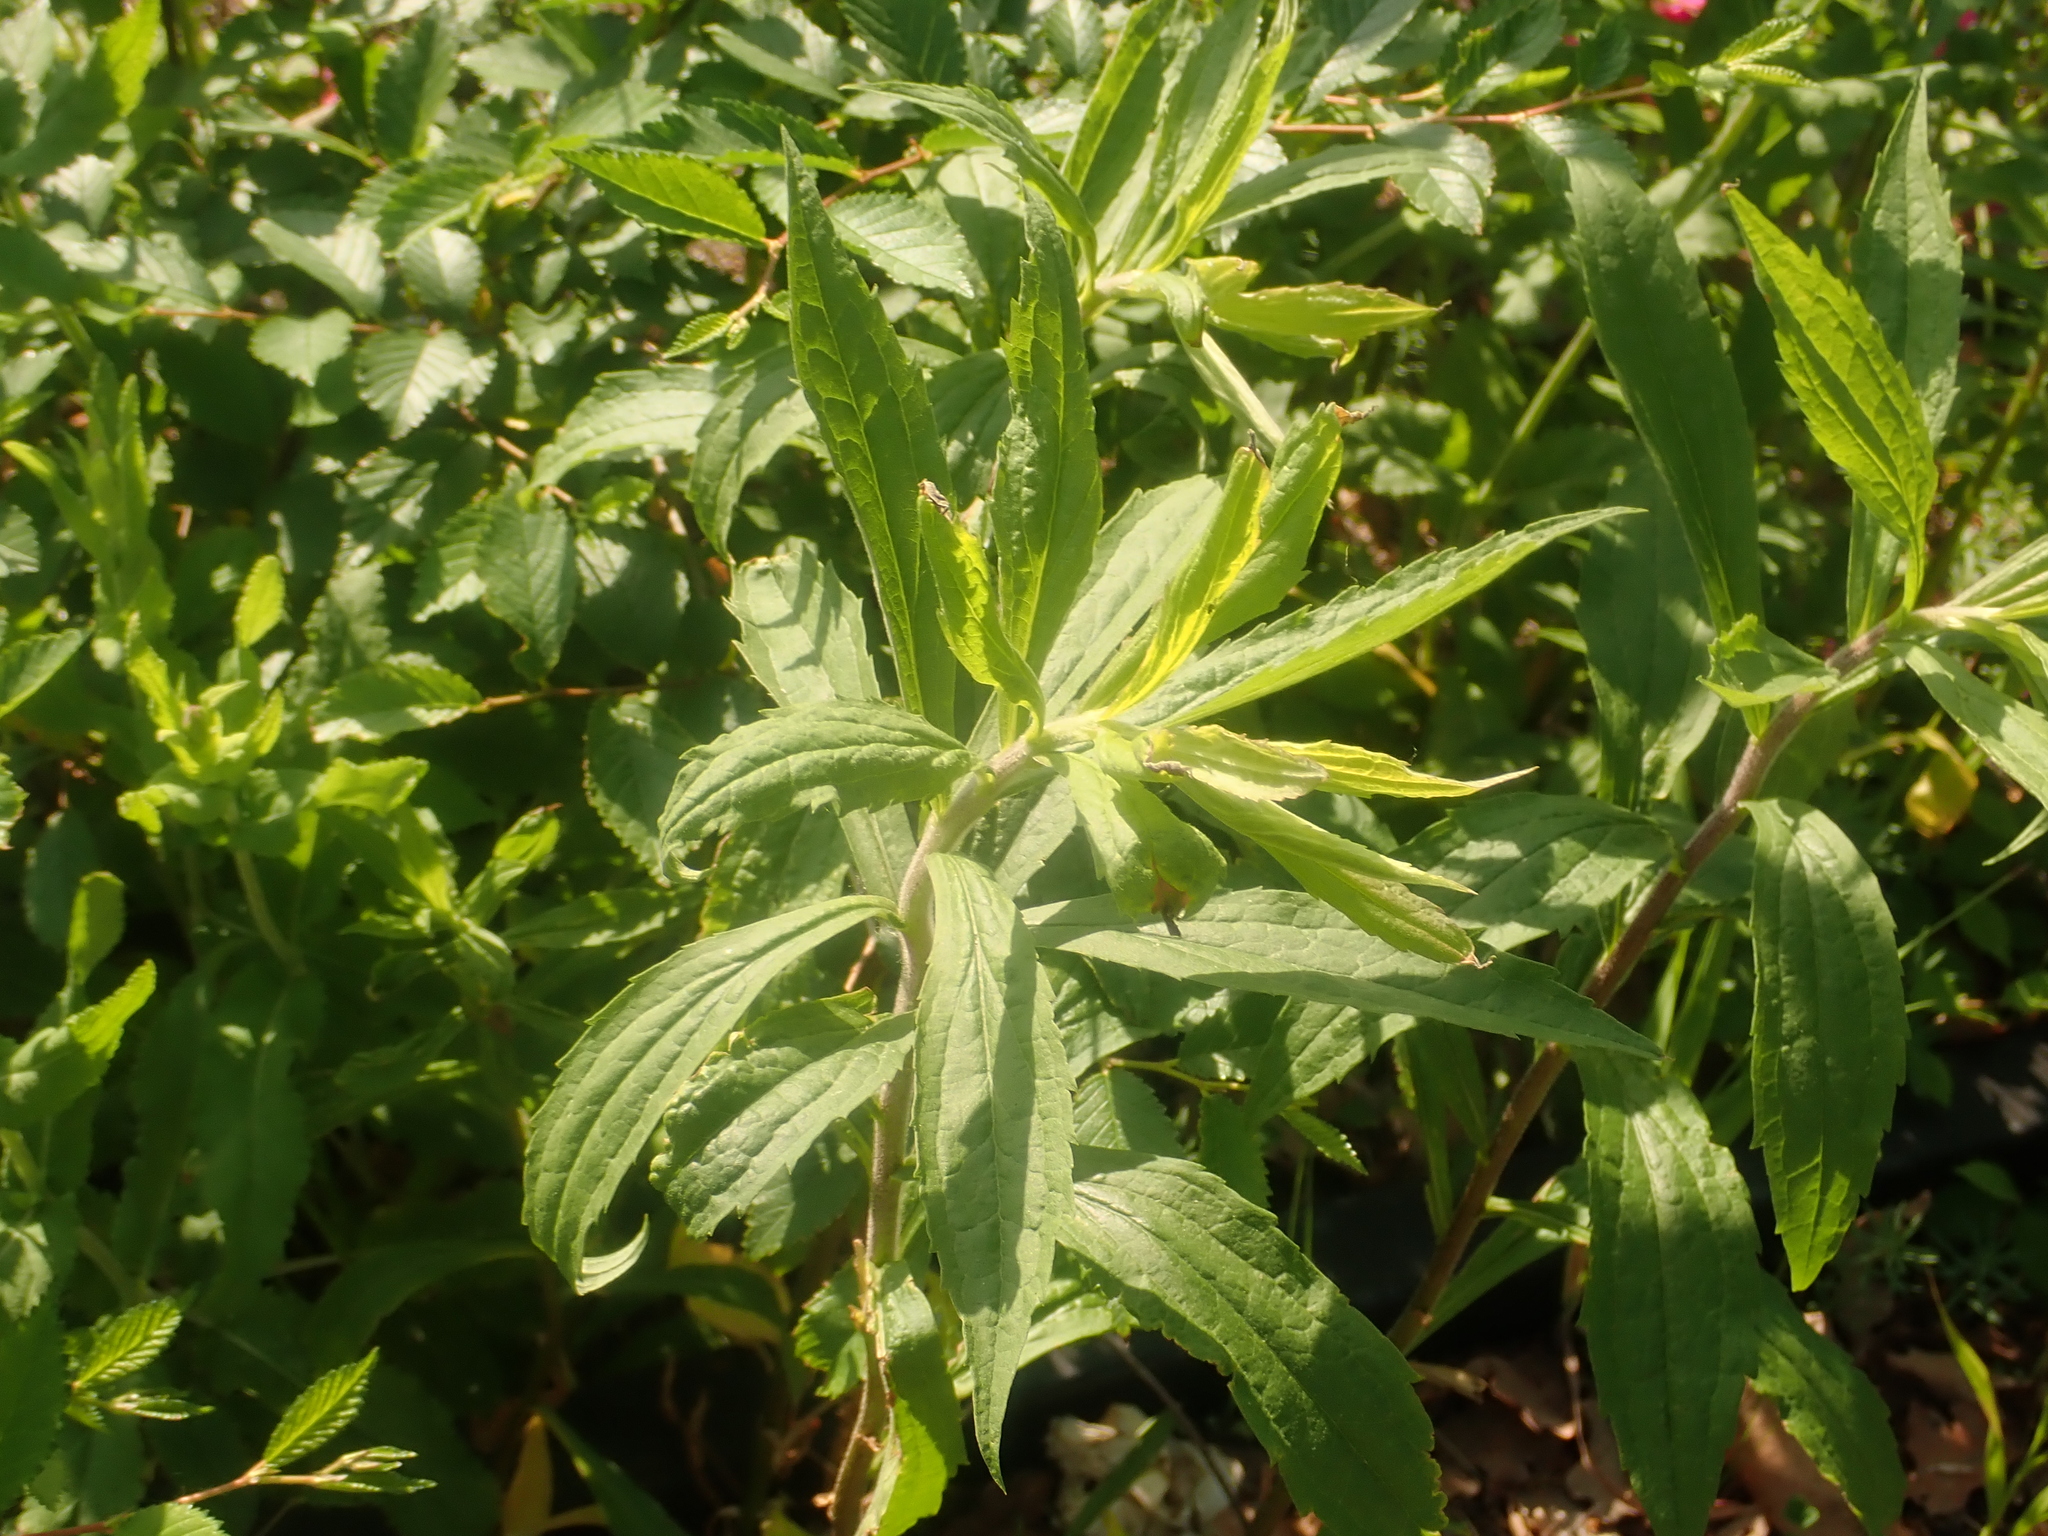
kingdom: Plantae
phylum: Tracheophyta
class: Magnoliopsida
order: Asterales
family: Asteraceae
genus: Solidago
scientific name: Solidago canadensis
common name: Canada goldenrod
